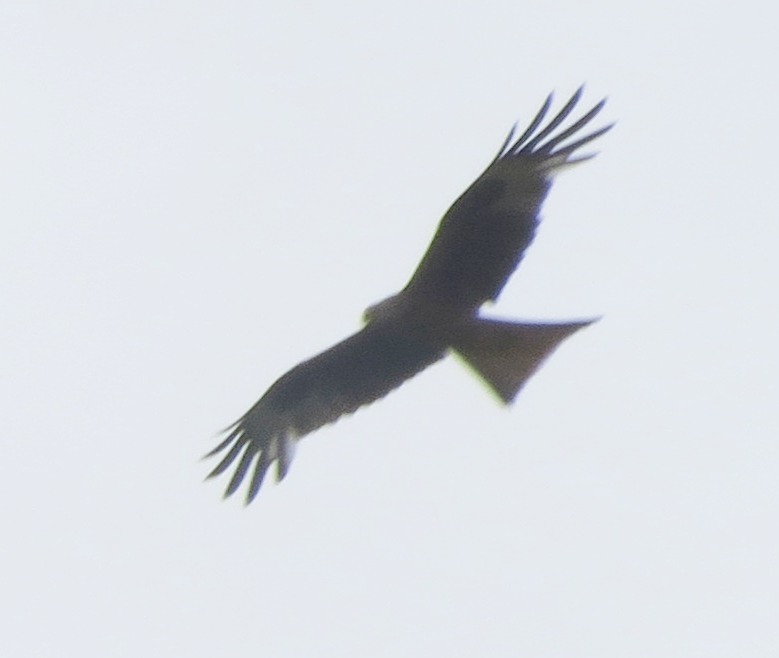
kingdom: Animalia
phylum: Chordata
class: Aves
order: Accipitriformes
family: Accipitridae
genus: Milvus
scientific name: Milvus milvus
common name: Red kite
